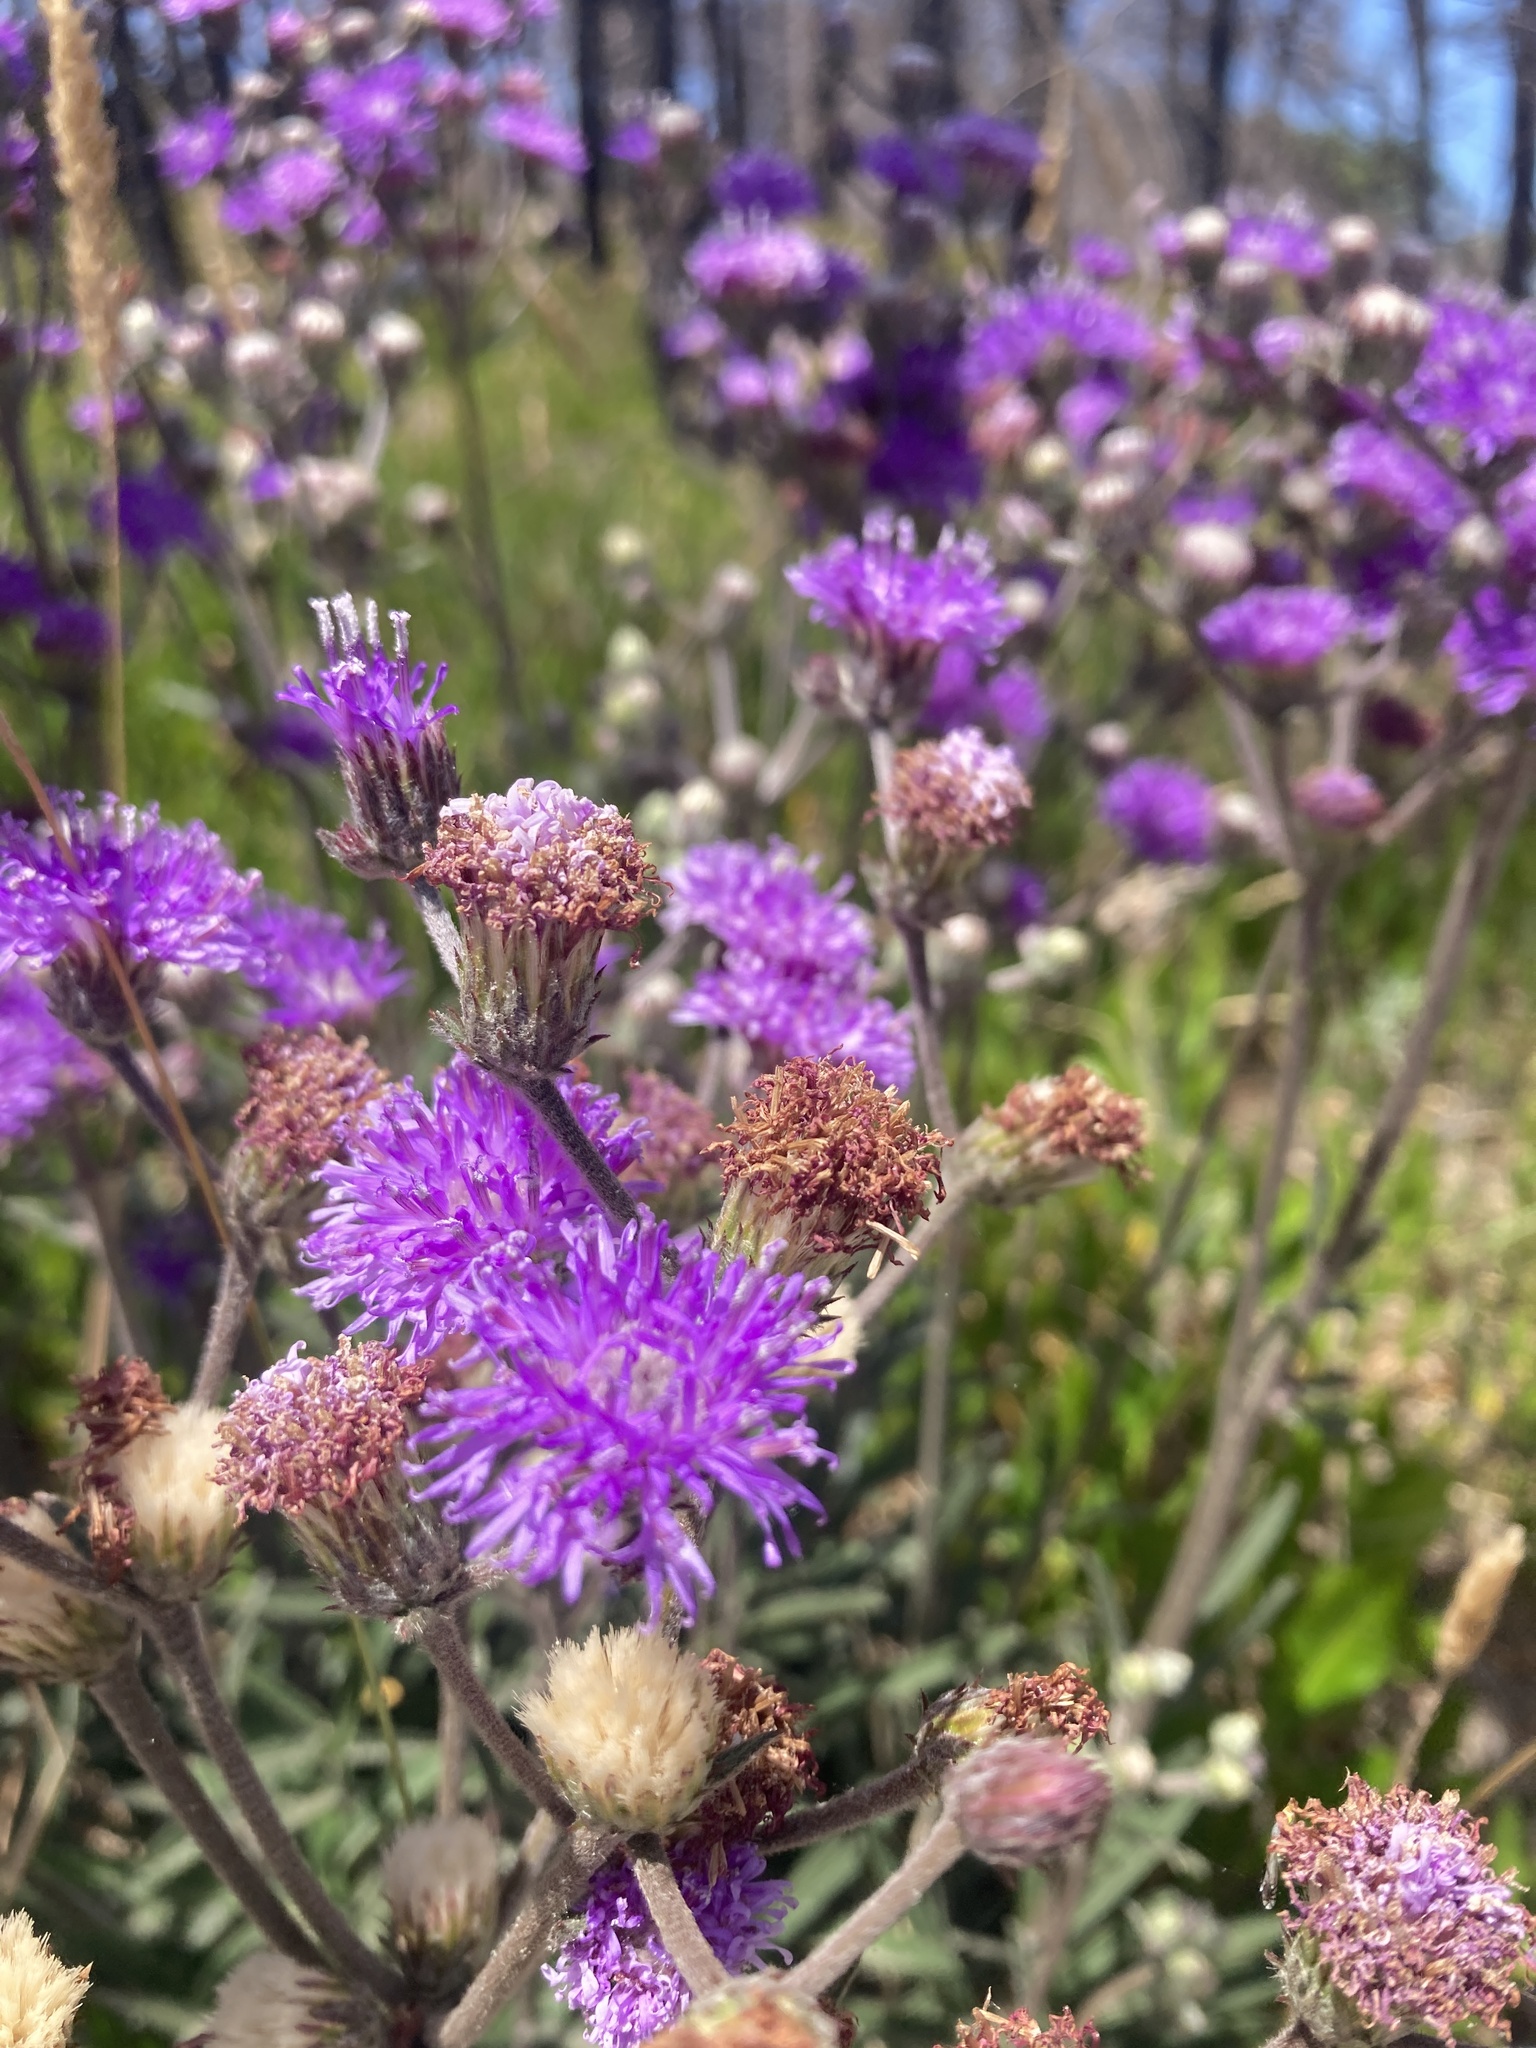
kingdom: Plantae
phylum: Tracheophyta
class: Magnoliopsida
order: Asterales
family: Asteraceae
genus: Chrysolaena
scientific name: Chrysolaena flexuosa
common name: Zig-zag vernonia
